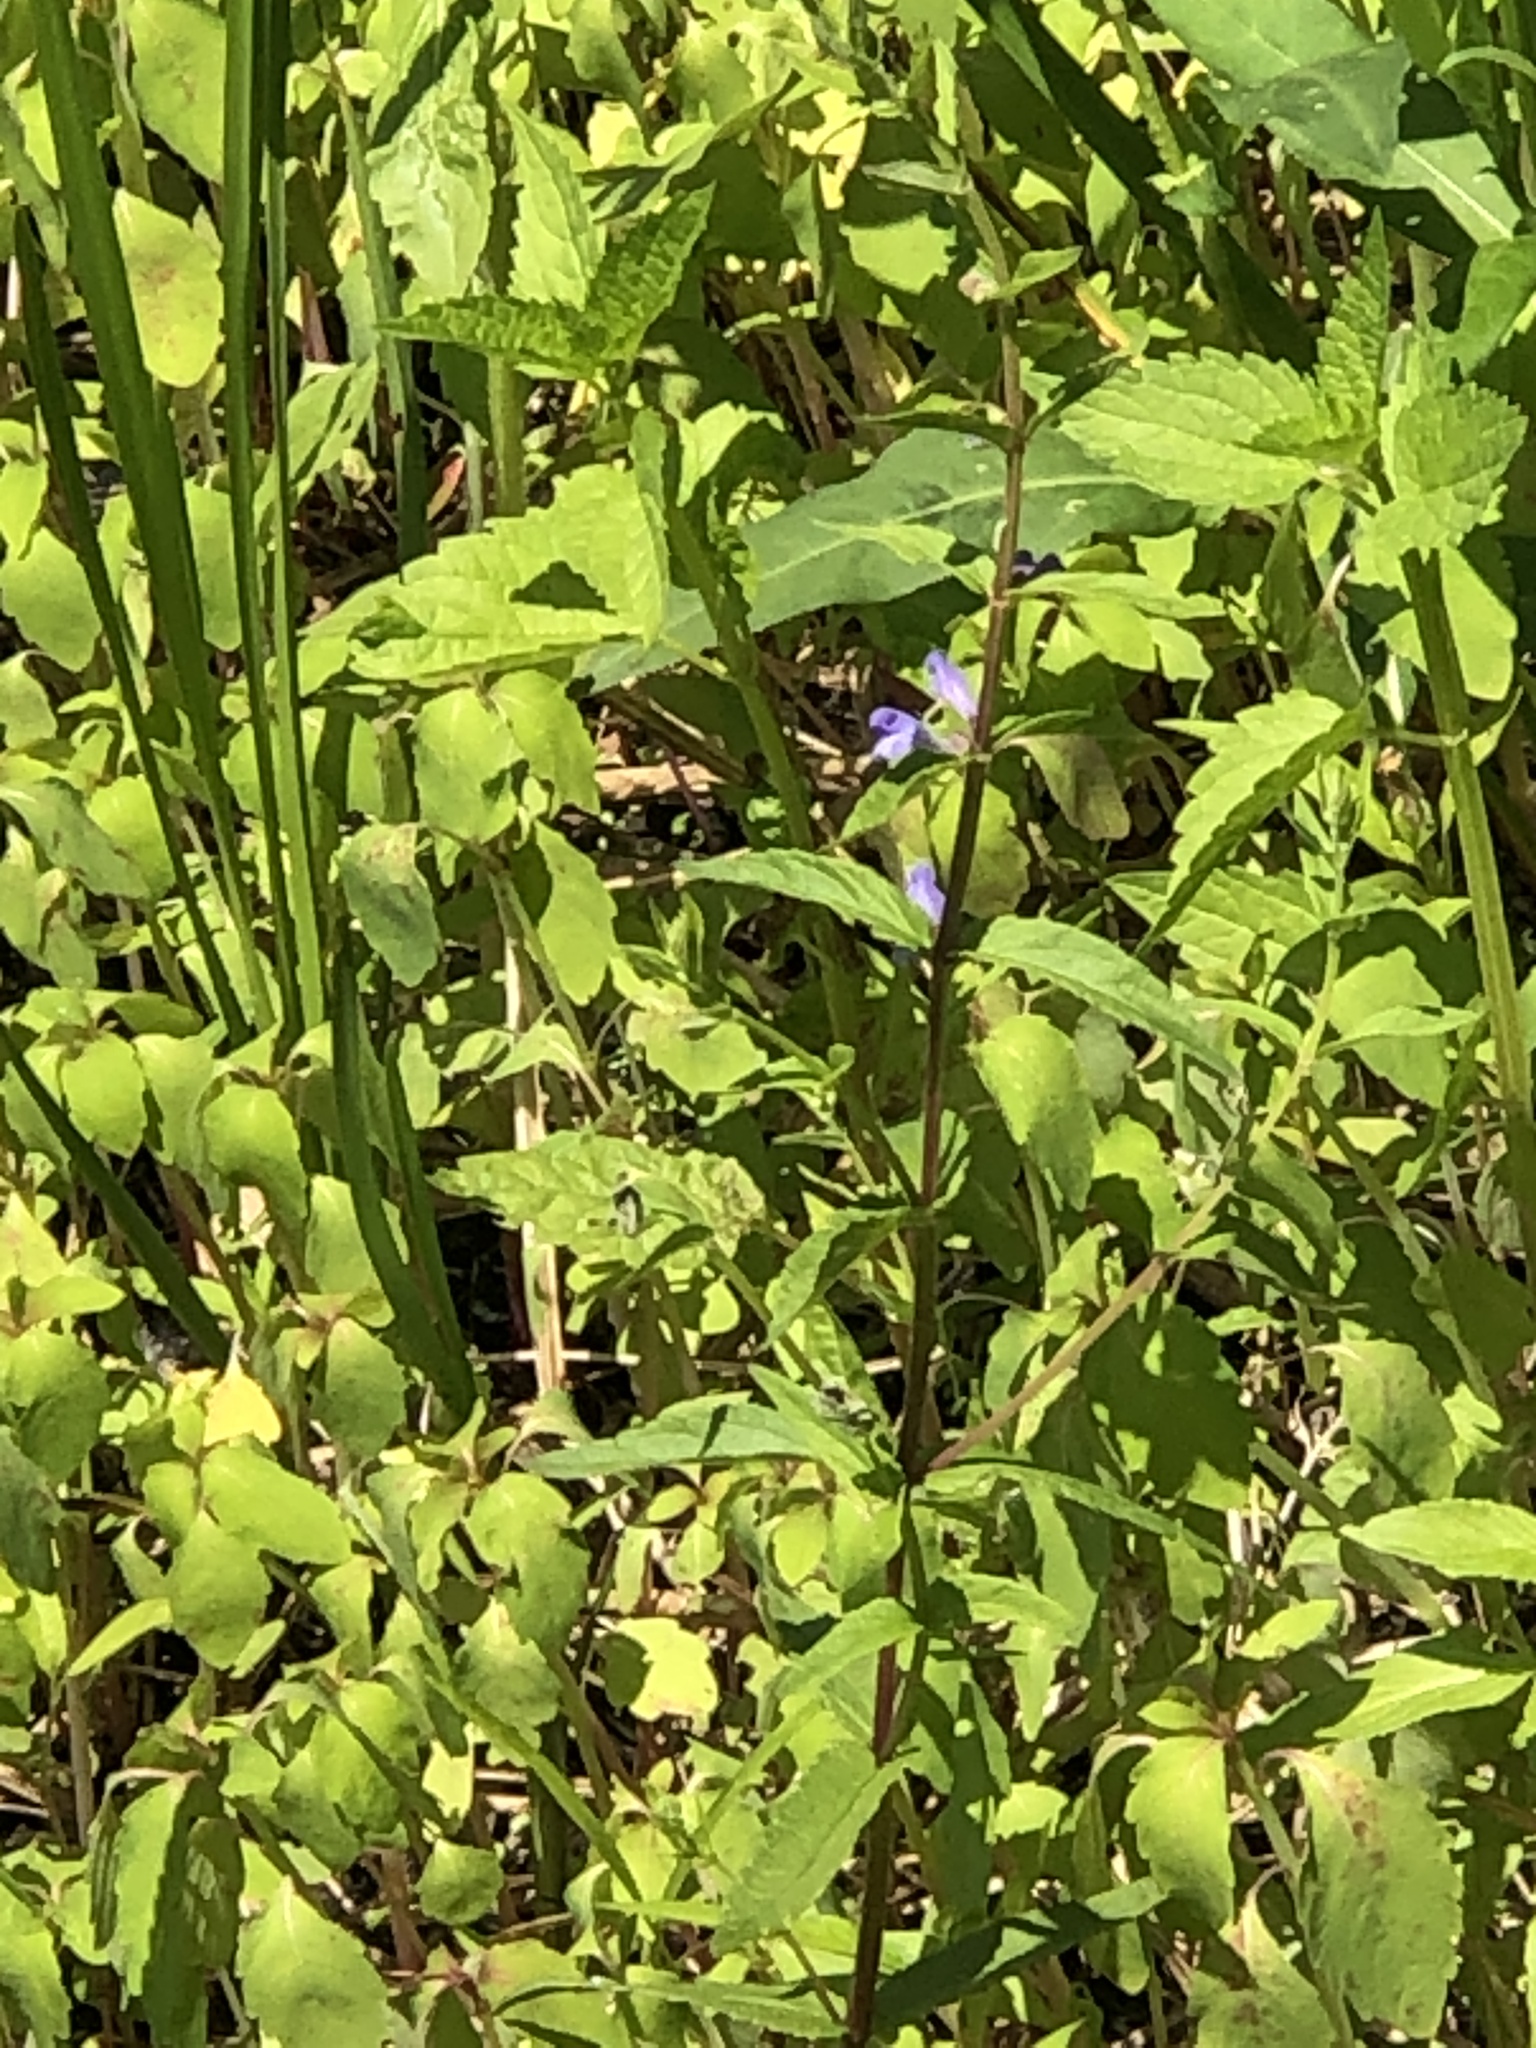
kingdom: Plantae
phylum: Tracheophyta
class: Magnoliopsida
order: Lamiales
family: Lamiaceae
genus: Scutellaria
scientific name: Scutellaria galericulata
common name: Skullcap
